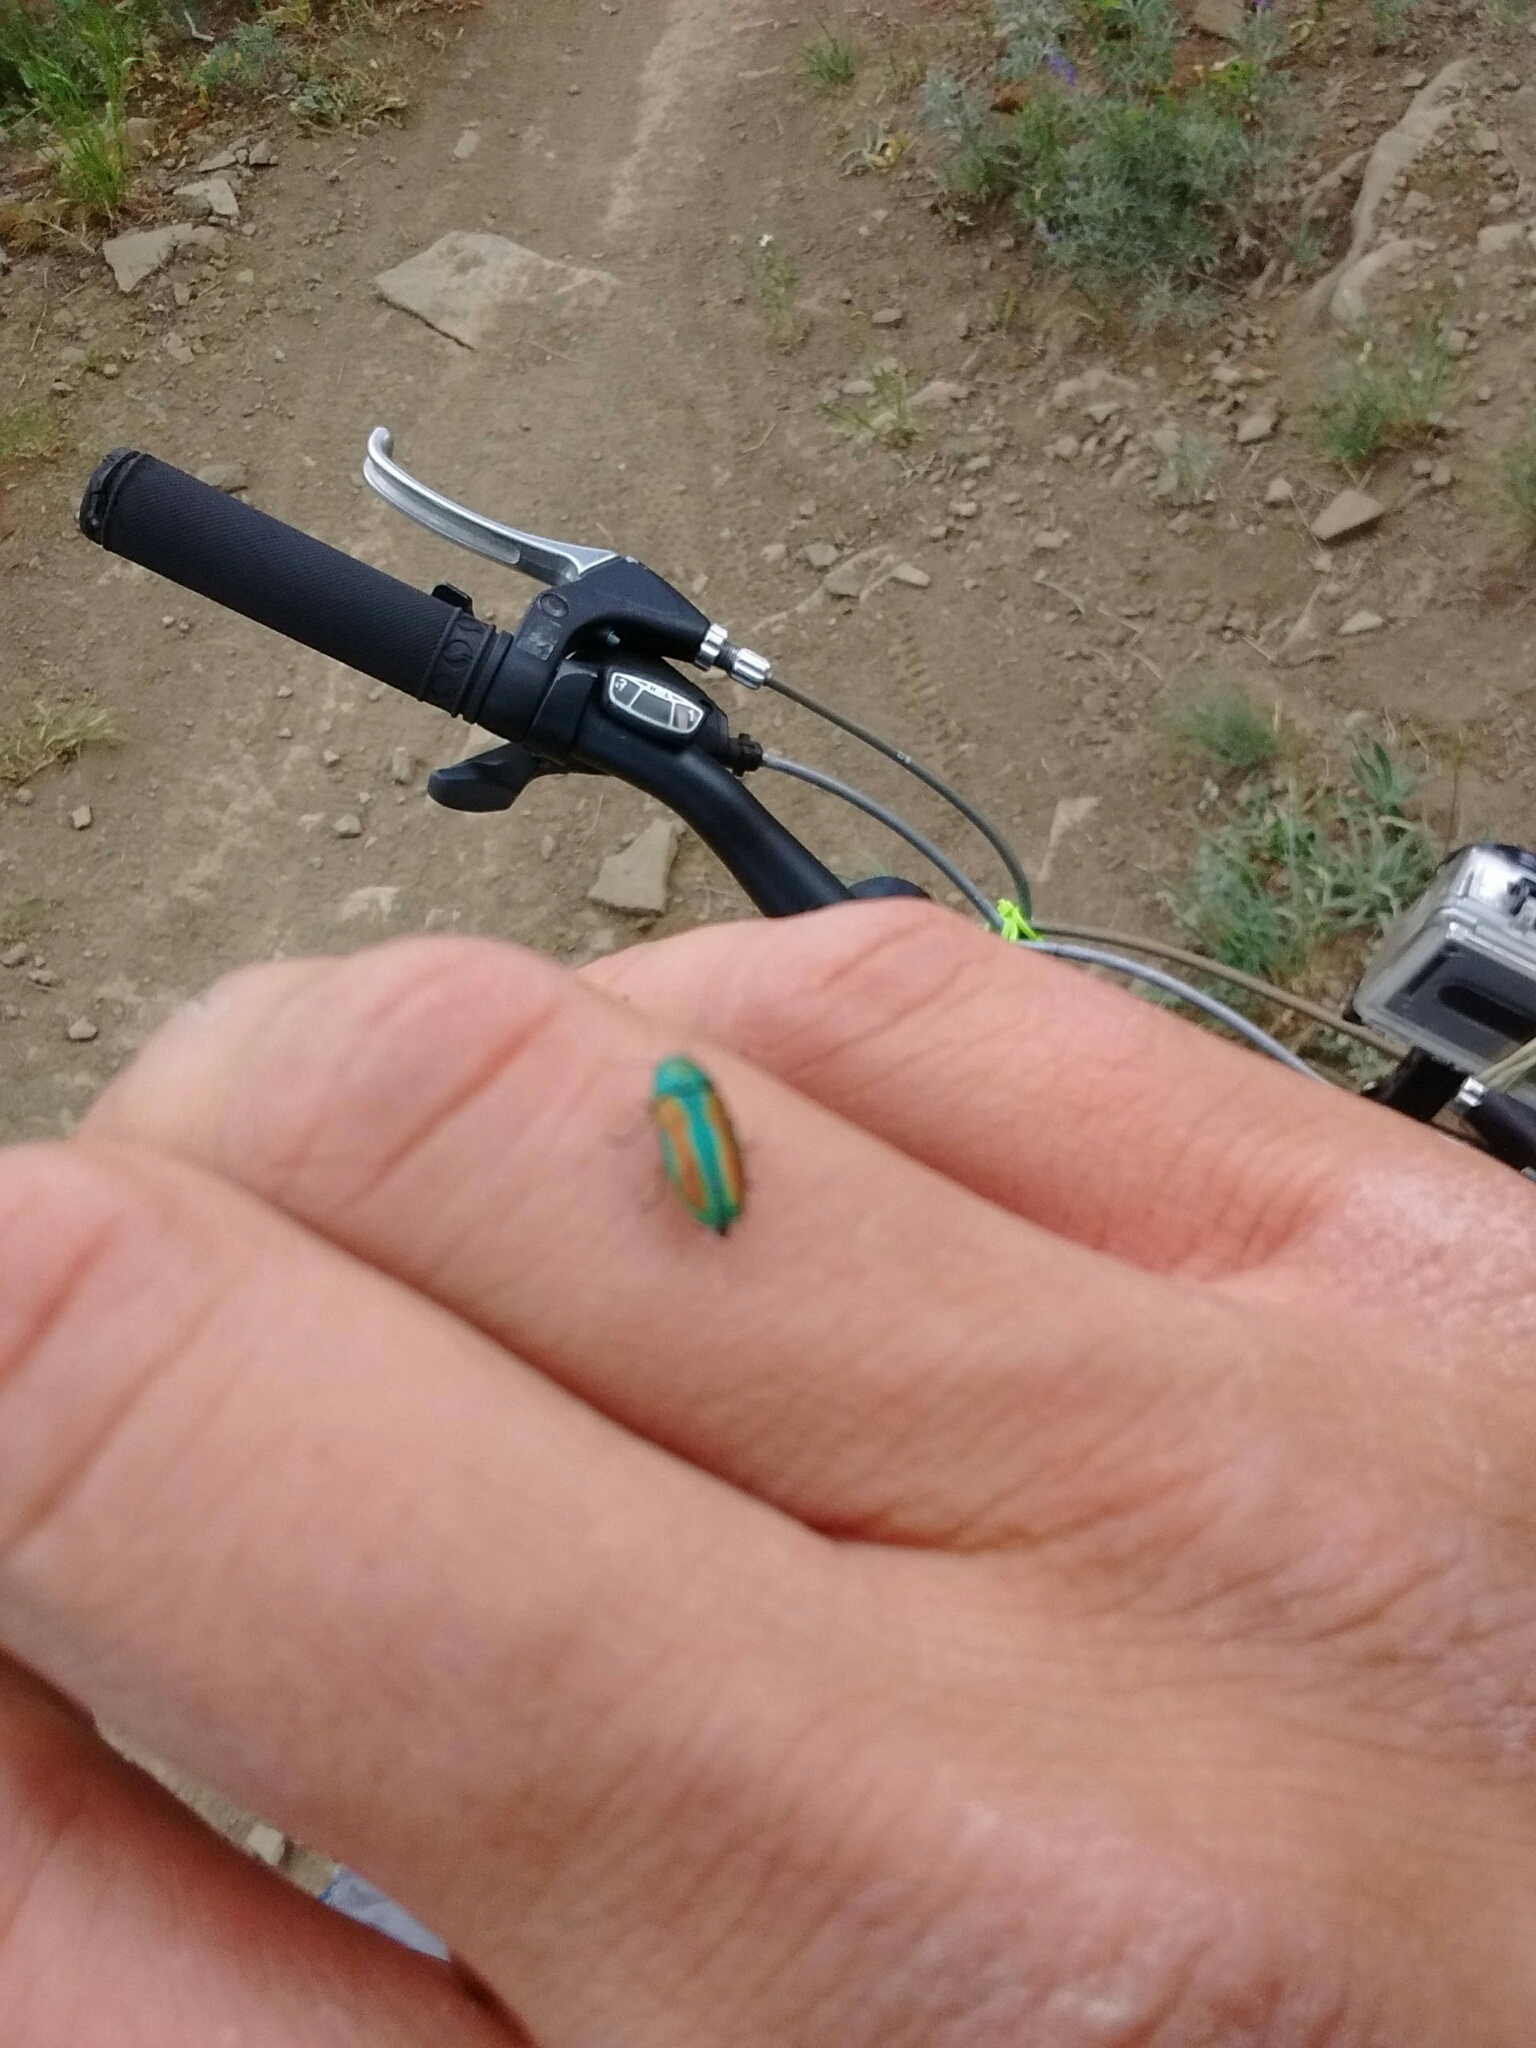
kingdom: Animalia
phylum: Arthropoda
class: Insecta
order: Coleoptera
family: Buprestidae
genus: Chrysophana
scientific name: Chrysophana placida
